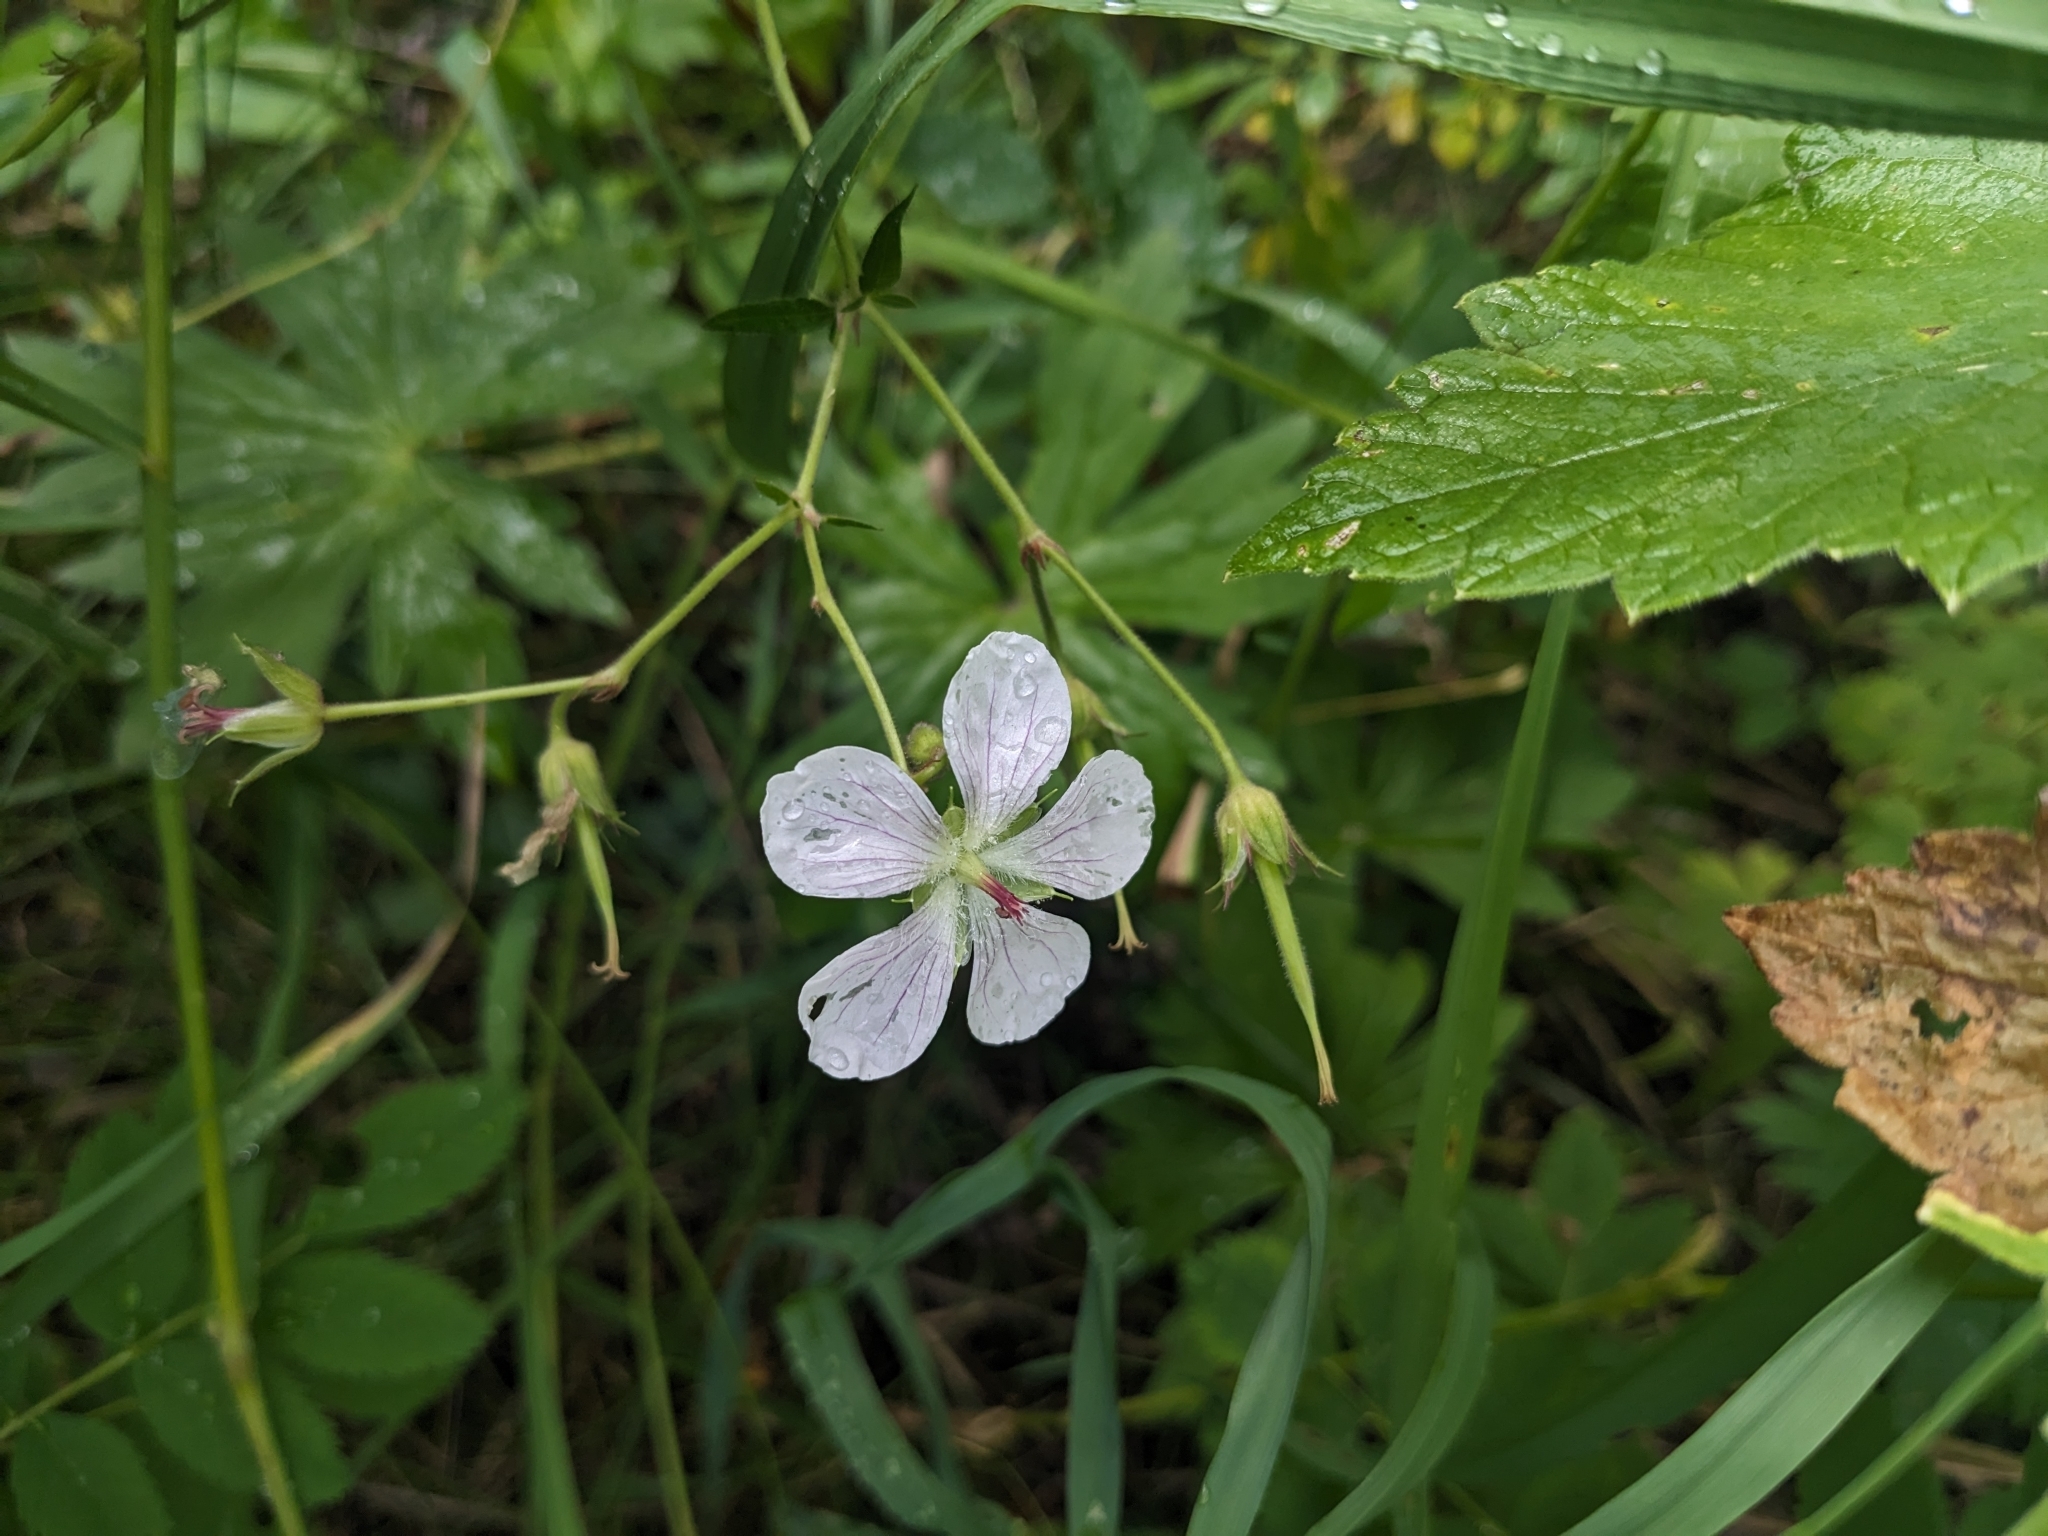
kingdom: Plantae
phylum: Tracheophyta
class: Magnoliopsida
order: Geraniales
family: Geraniaceae
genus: Geranium
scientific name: Geranium richardsonii
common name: Richardson's crane's-bill
